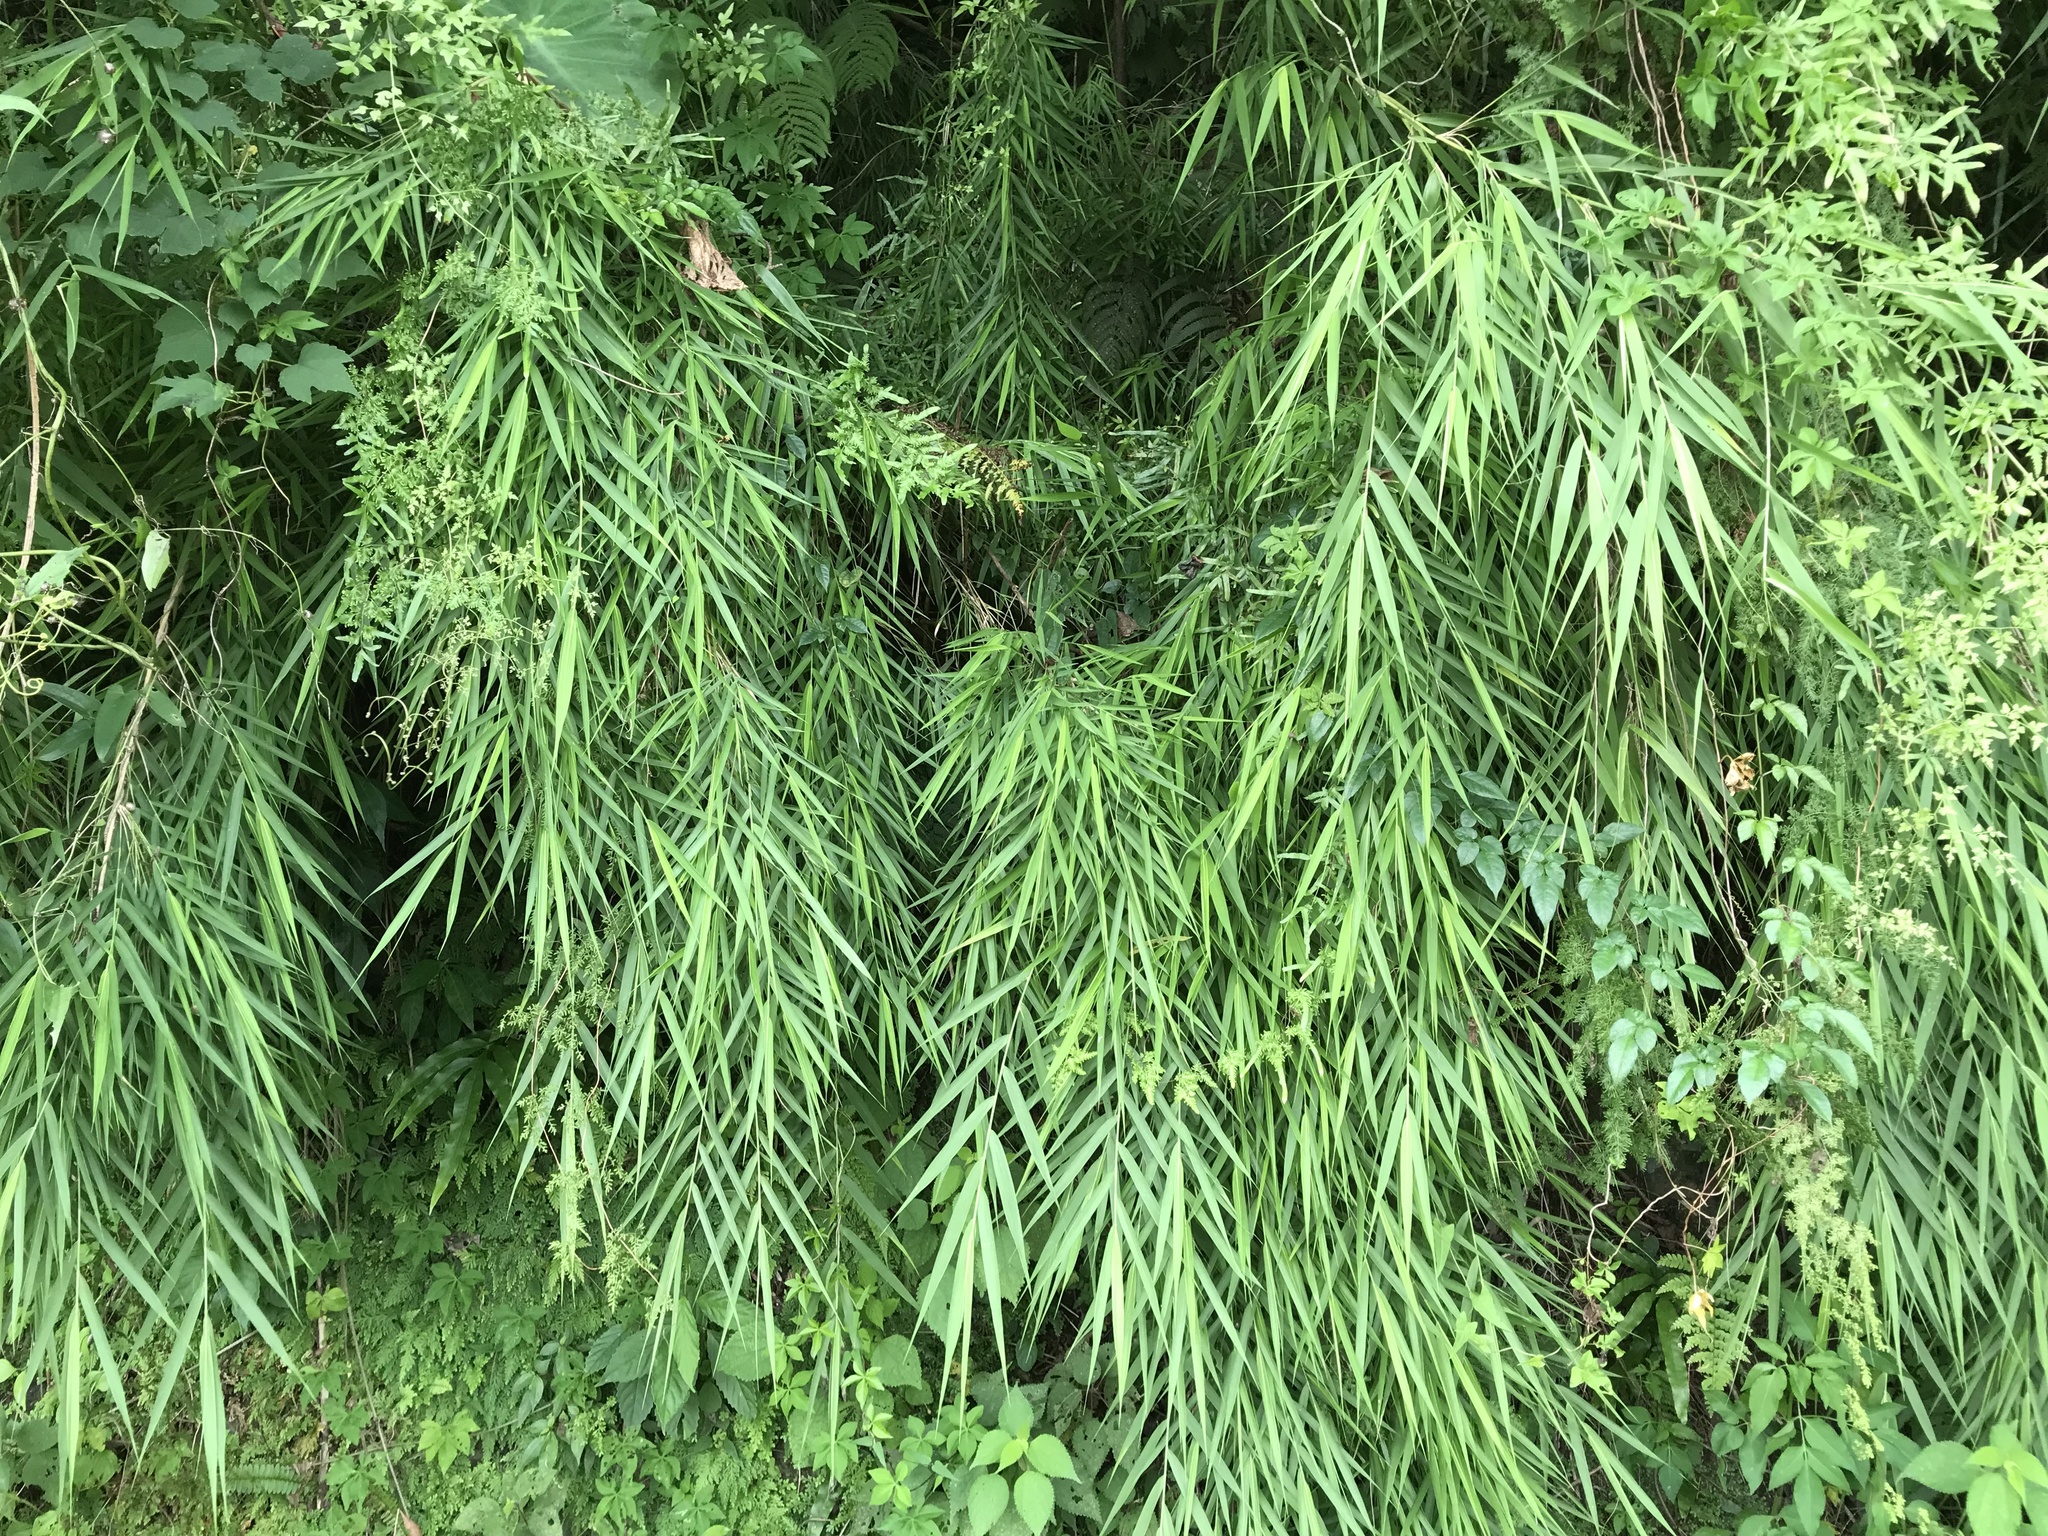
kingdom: Plantae
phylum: Tracheophyta
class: Liliopsida
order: Poales
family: Poaceae
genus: Arundo
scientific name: Arundo formosana
